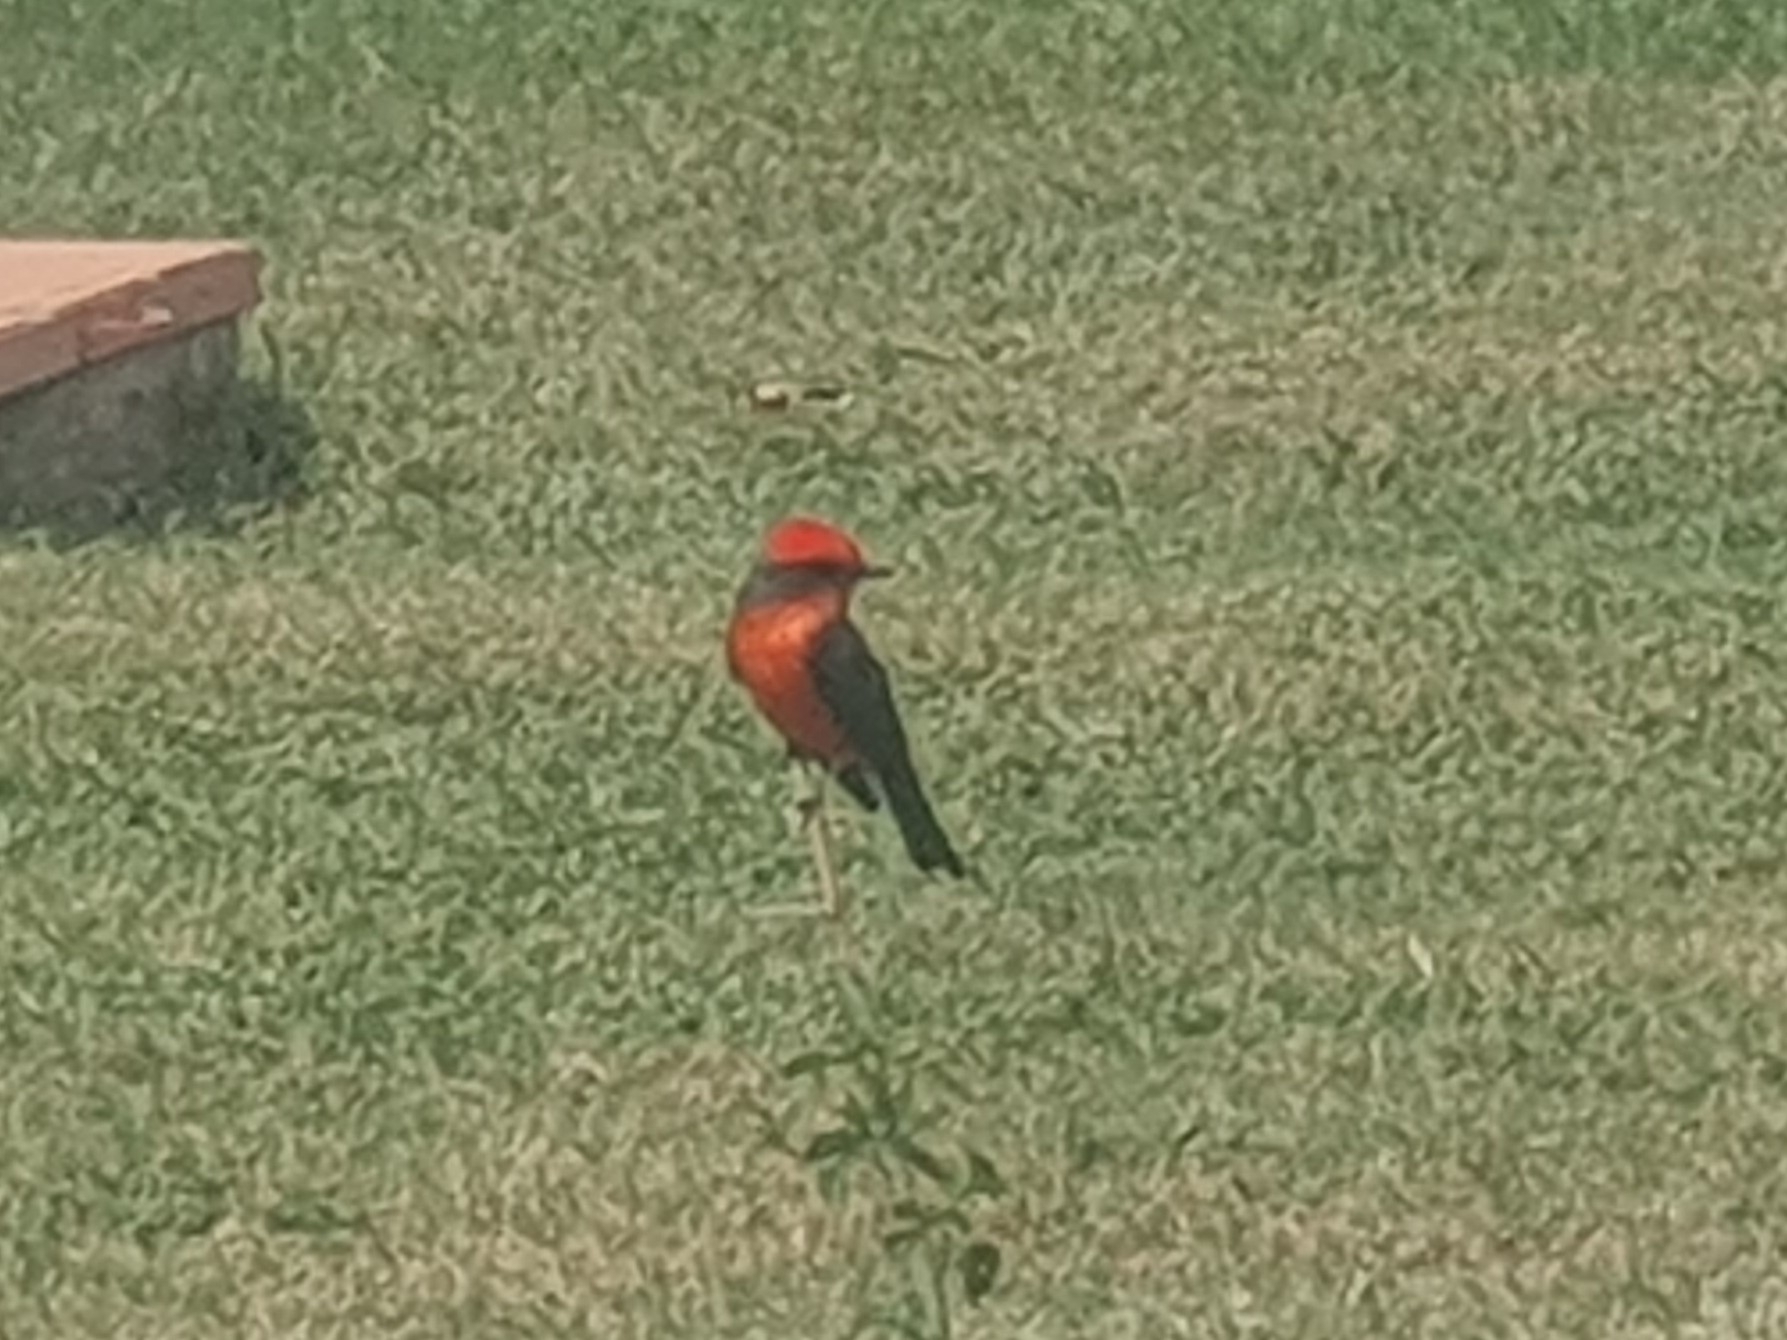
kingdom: Animalia
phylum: Chordata
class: Aves
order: Passeriformes
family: Tyrannidae
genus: Pyrocephalus
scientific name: Pyrocephalus rubinus
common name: Vermilion flycatcher
